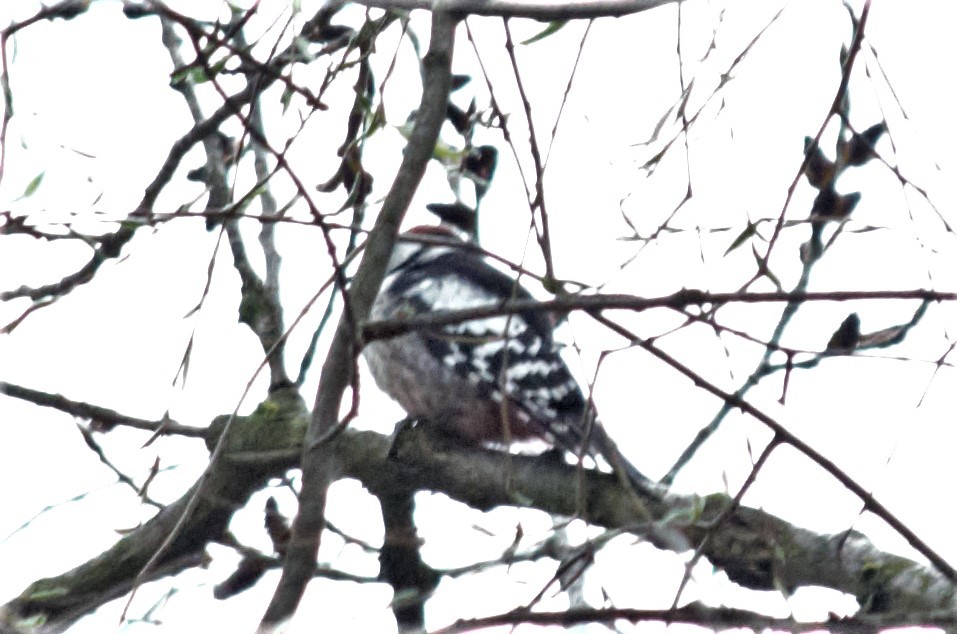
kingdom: Animalia
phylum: Chordata
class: Aves
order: Piciformes
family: Picidae
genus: Dendrocoptes
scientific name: Dendrocoptes medius
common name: Middle spotted woodpecker
